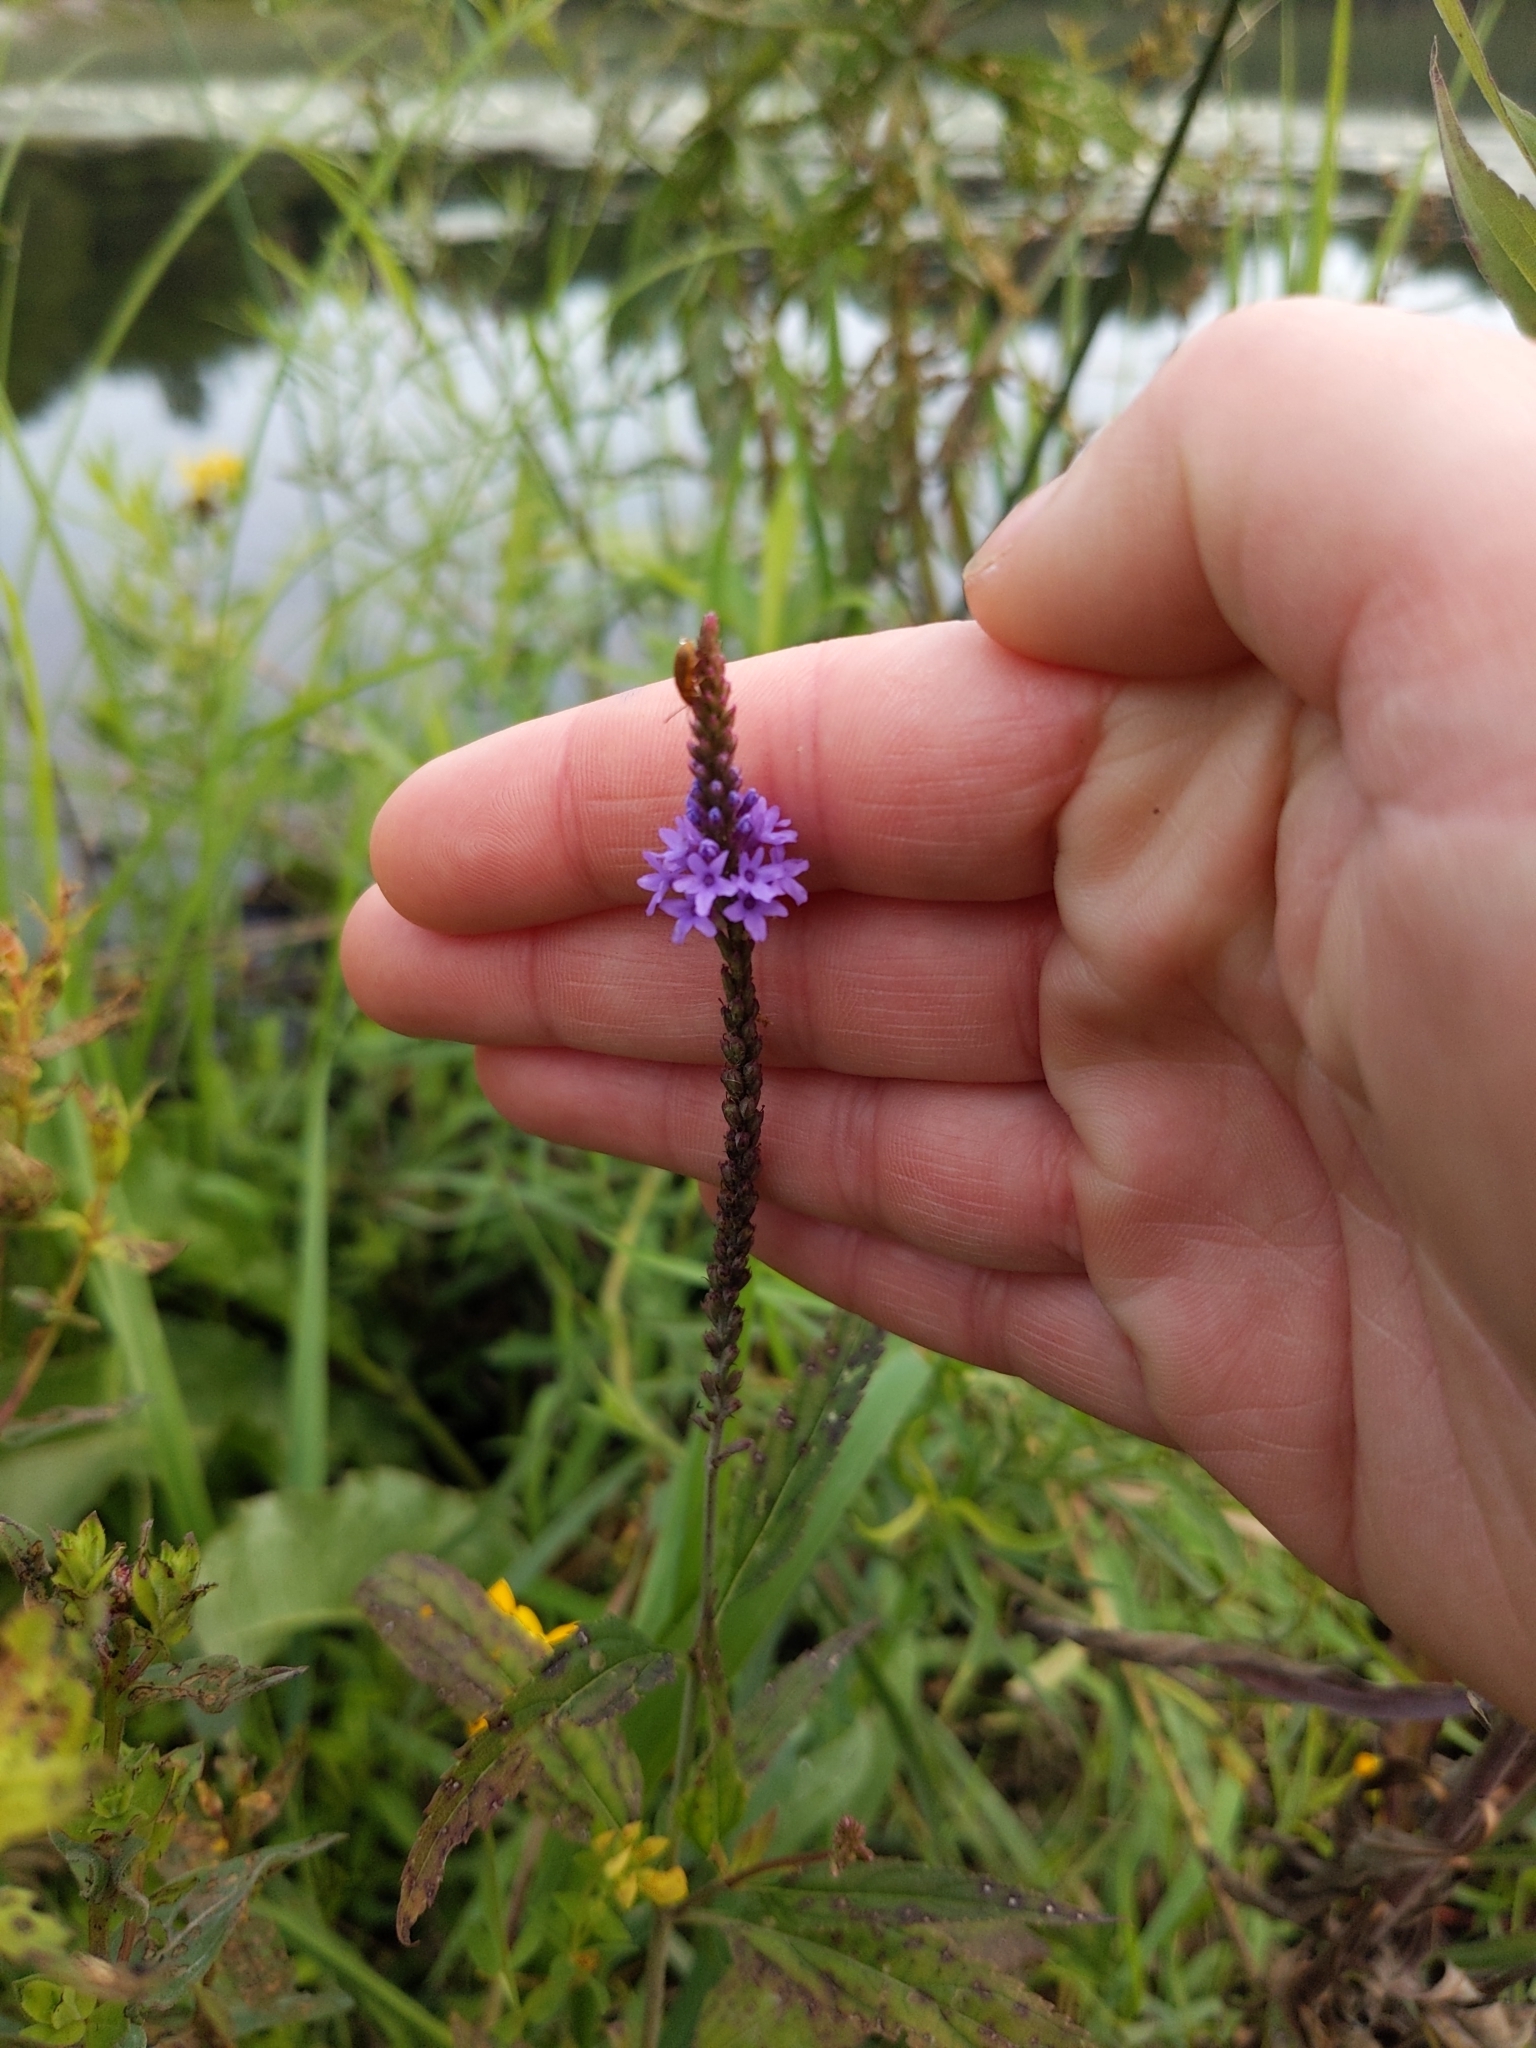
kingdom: Plantae
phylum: Tracheophyta
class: Magnoliopsida
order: Lamiales
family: Verbenaceae
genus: Verbena
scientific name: Verbena hastata
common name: American blue vervain
